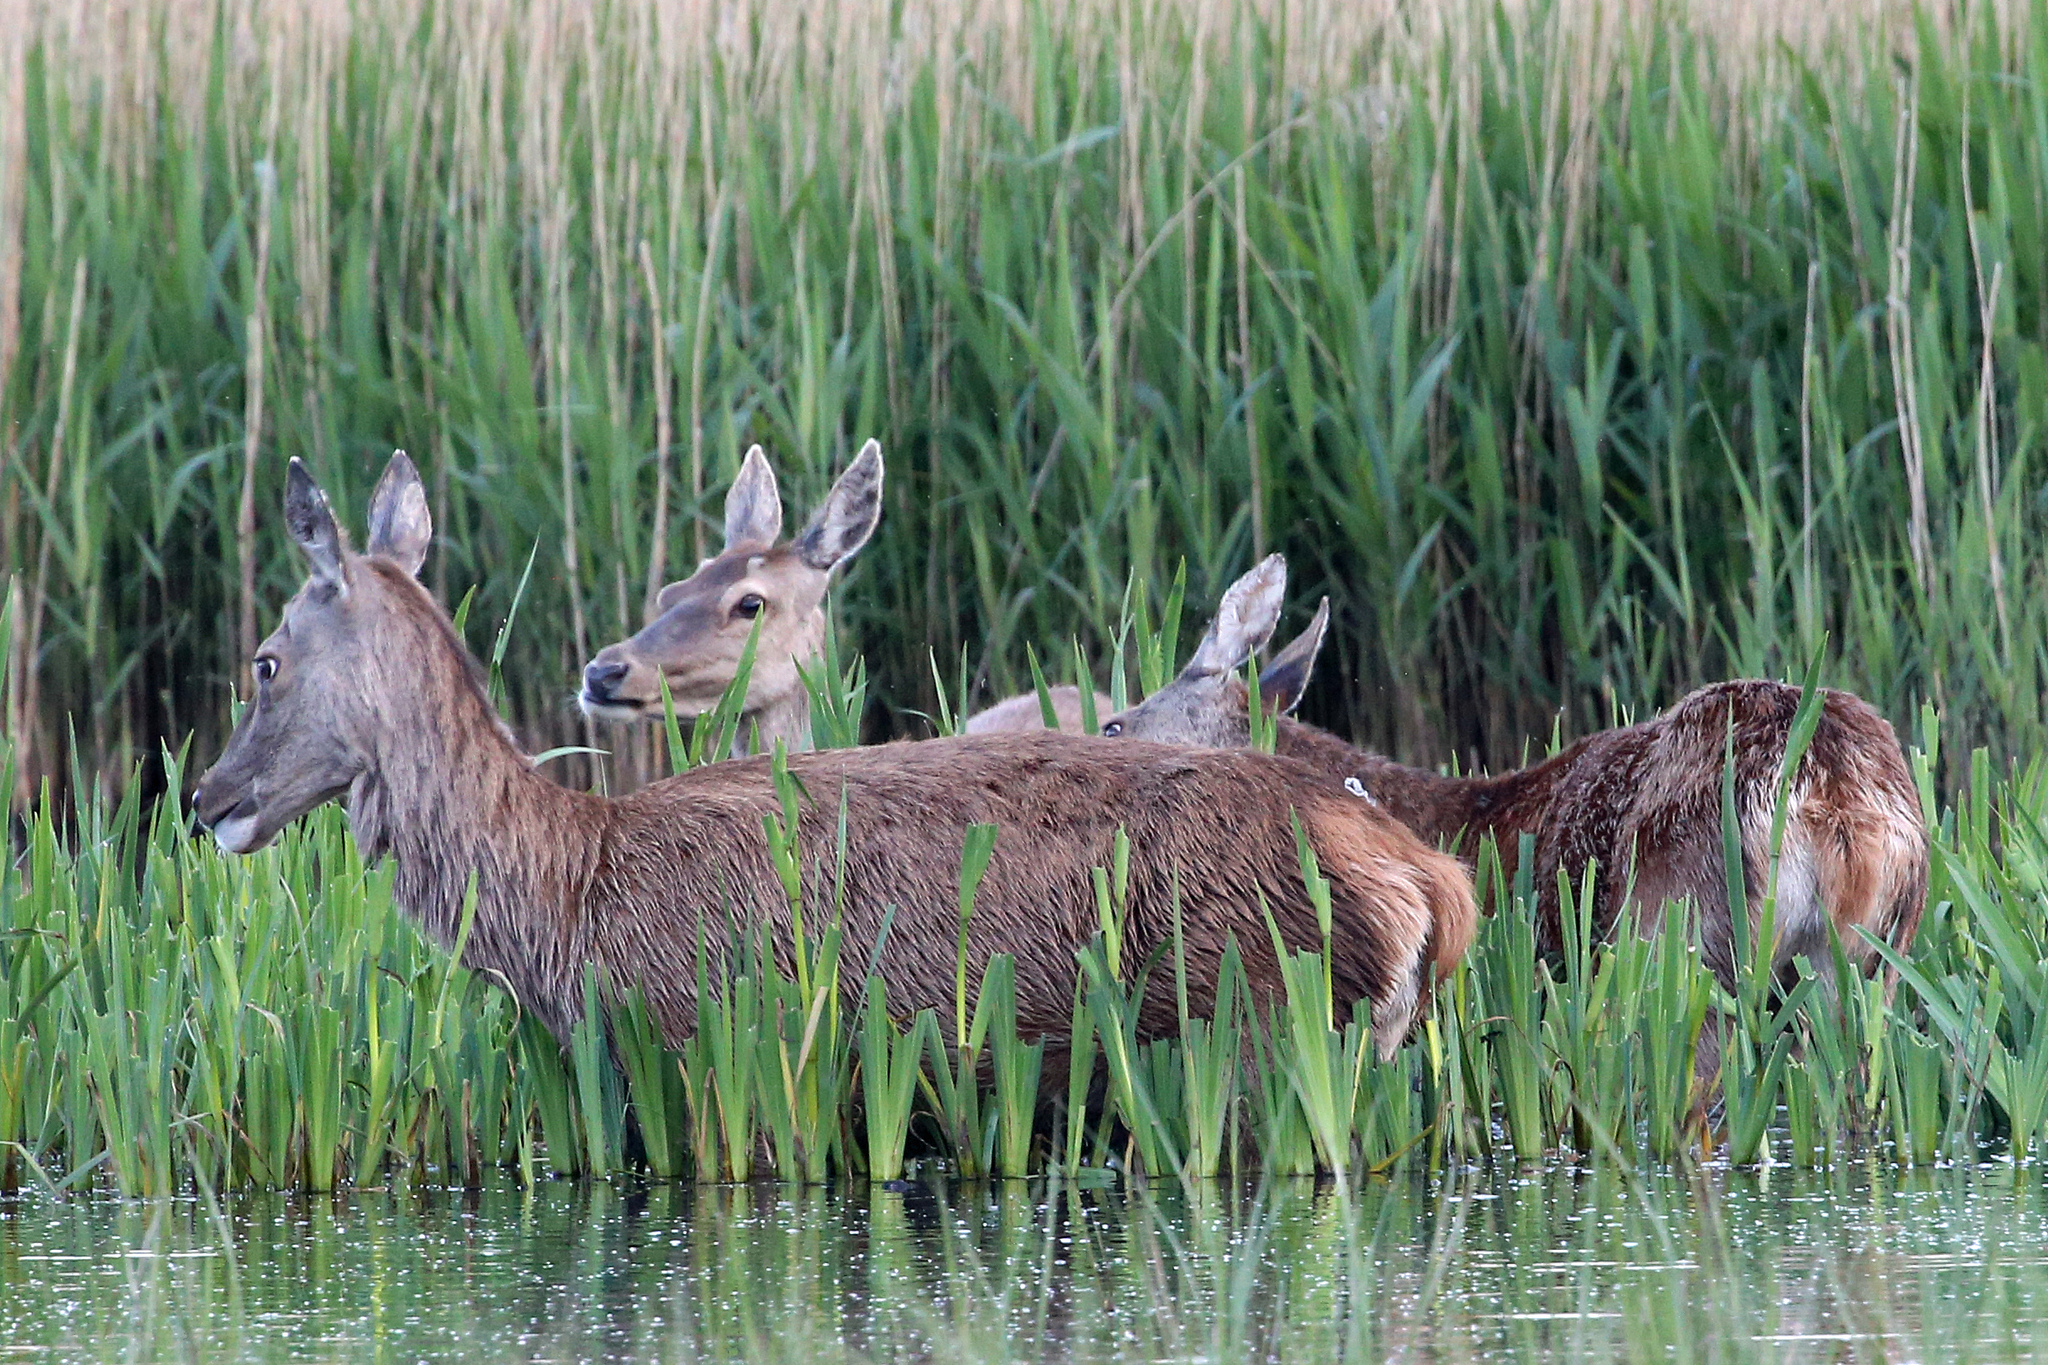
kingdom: Animalia
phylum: Chordata
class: Mammalia
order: Artiodactyla
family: Cervidae
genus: Cervus
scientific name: Cervus elaphus
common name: Red deer
